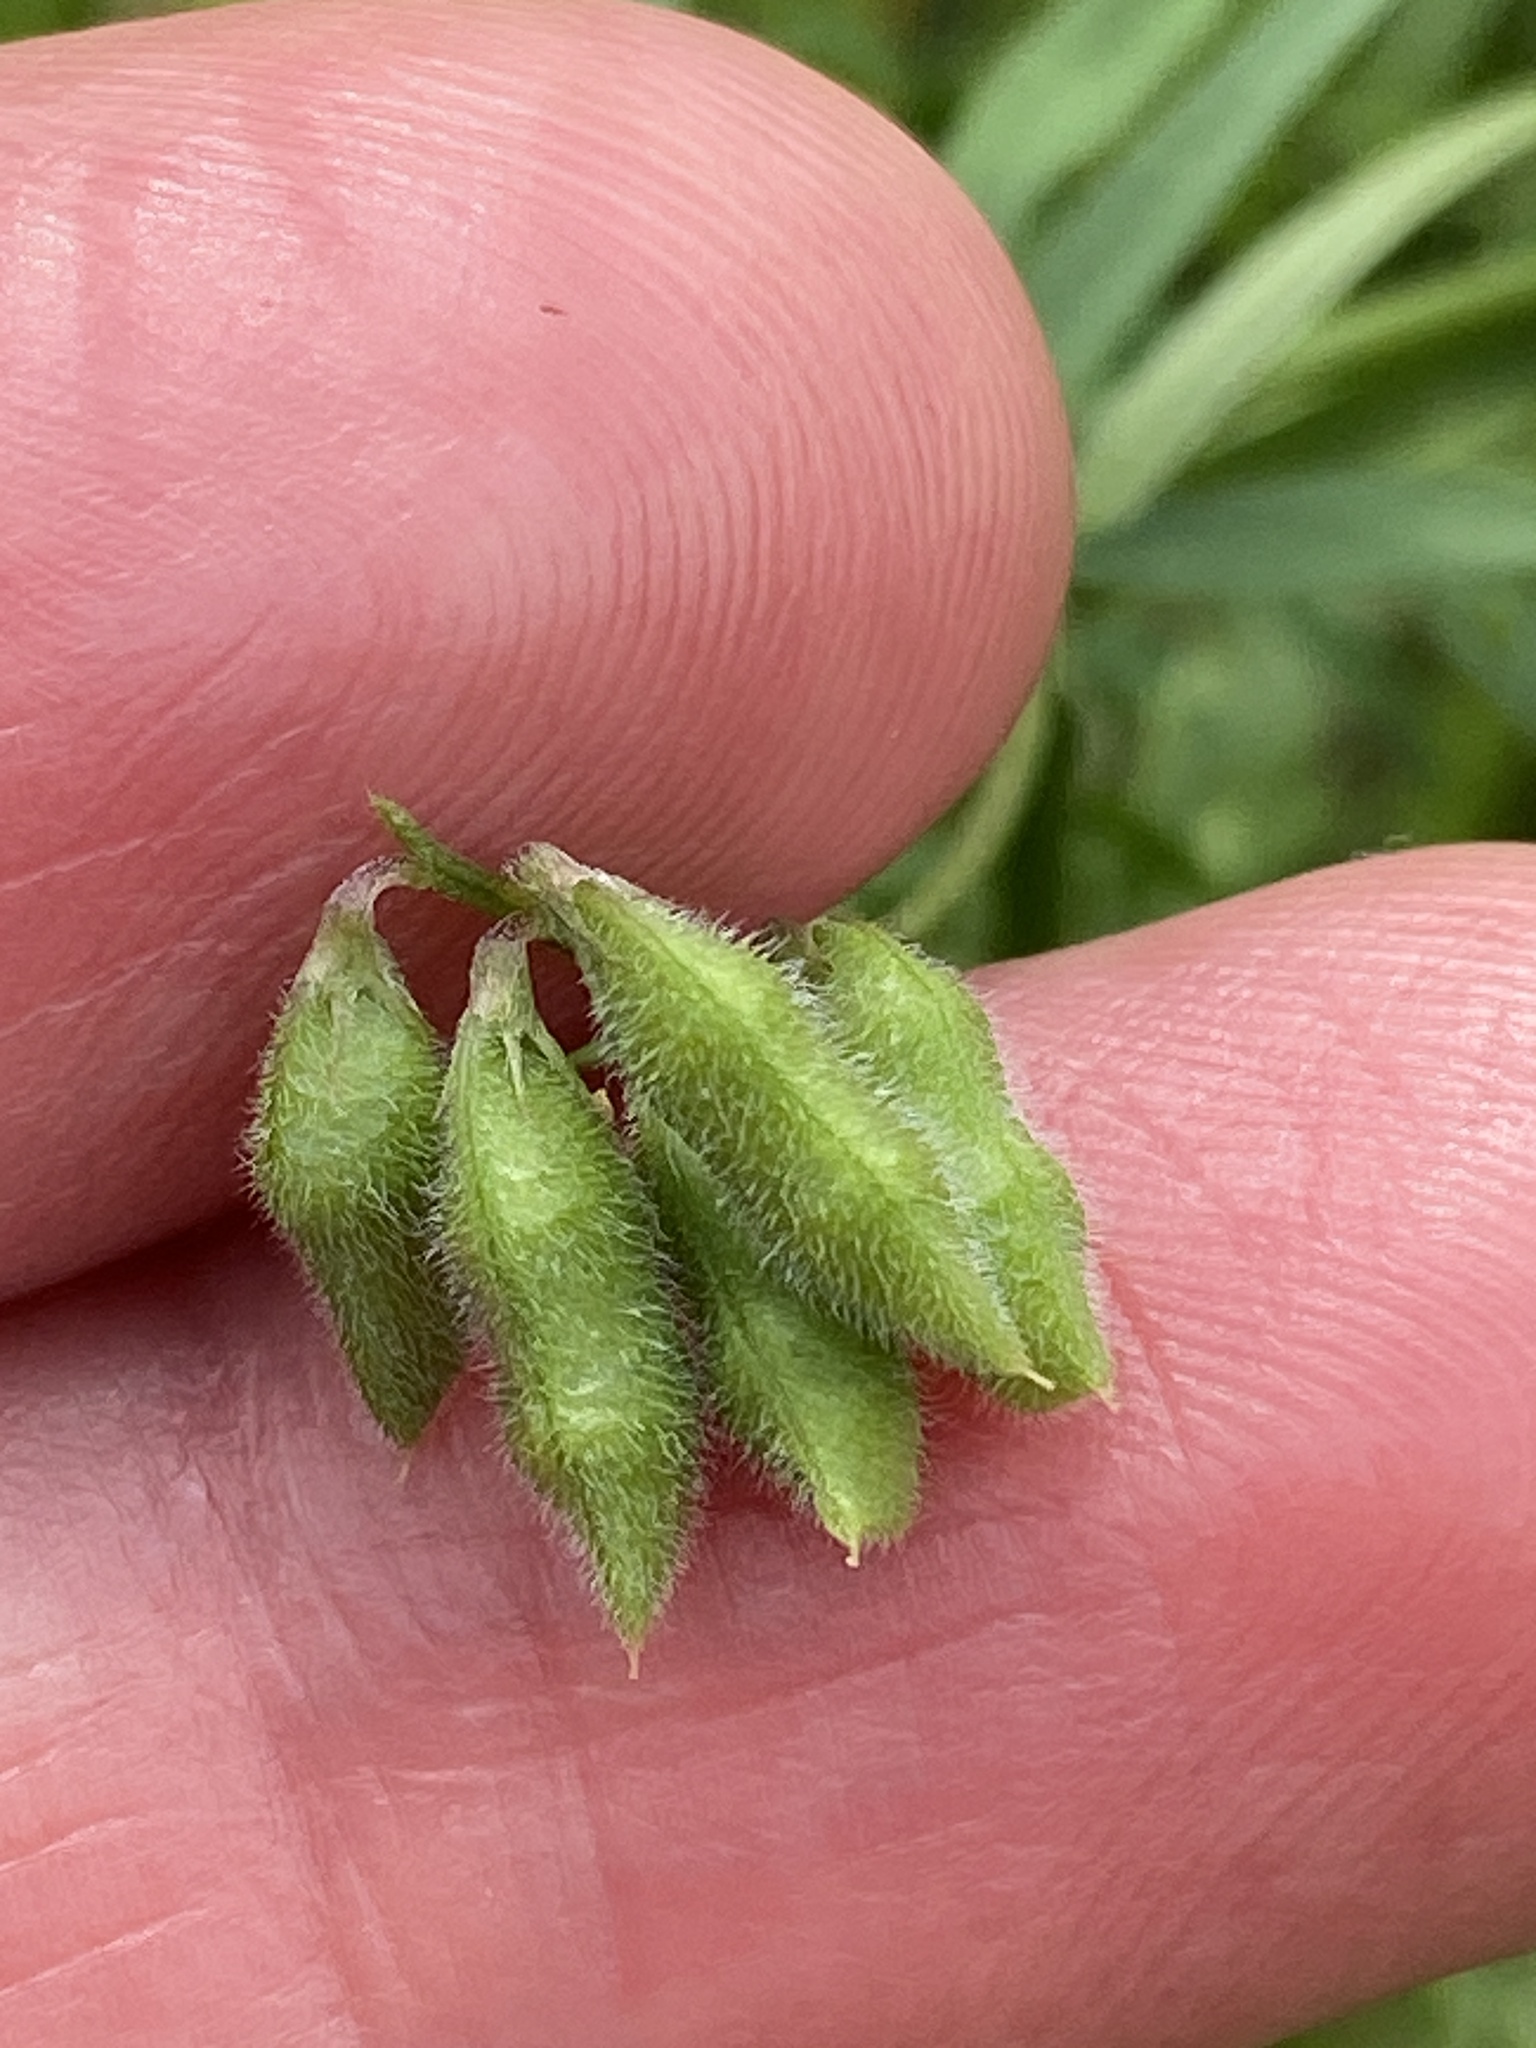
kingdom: Plantae
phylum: Tracheophyta
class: Magnoliopsida
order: Fabales
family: Fabaceae
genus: Vicia
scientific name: Vicia hirsuta
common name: Tiny vetch
